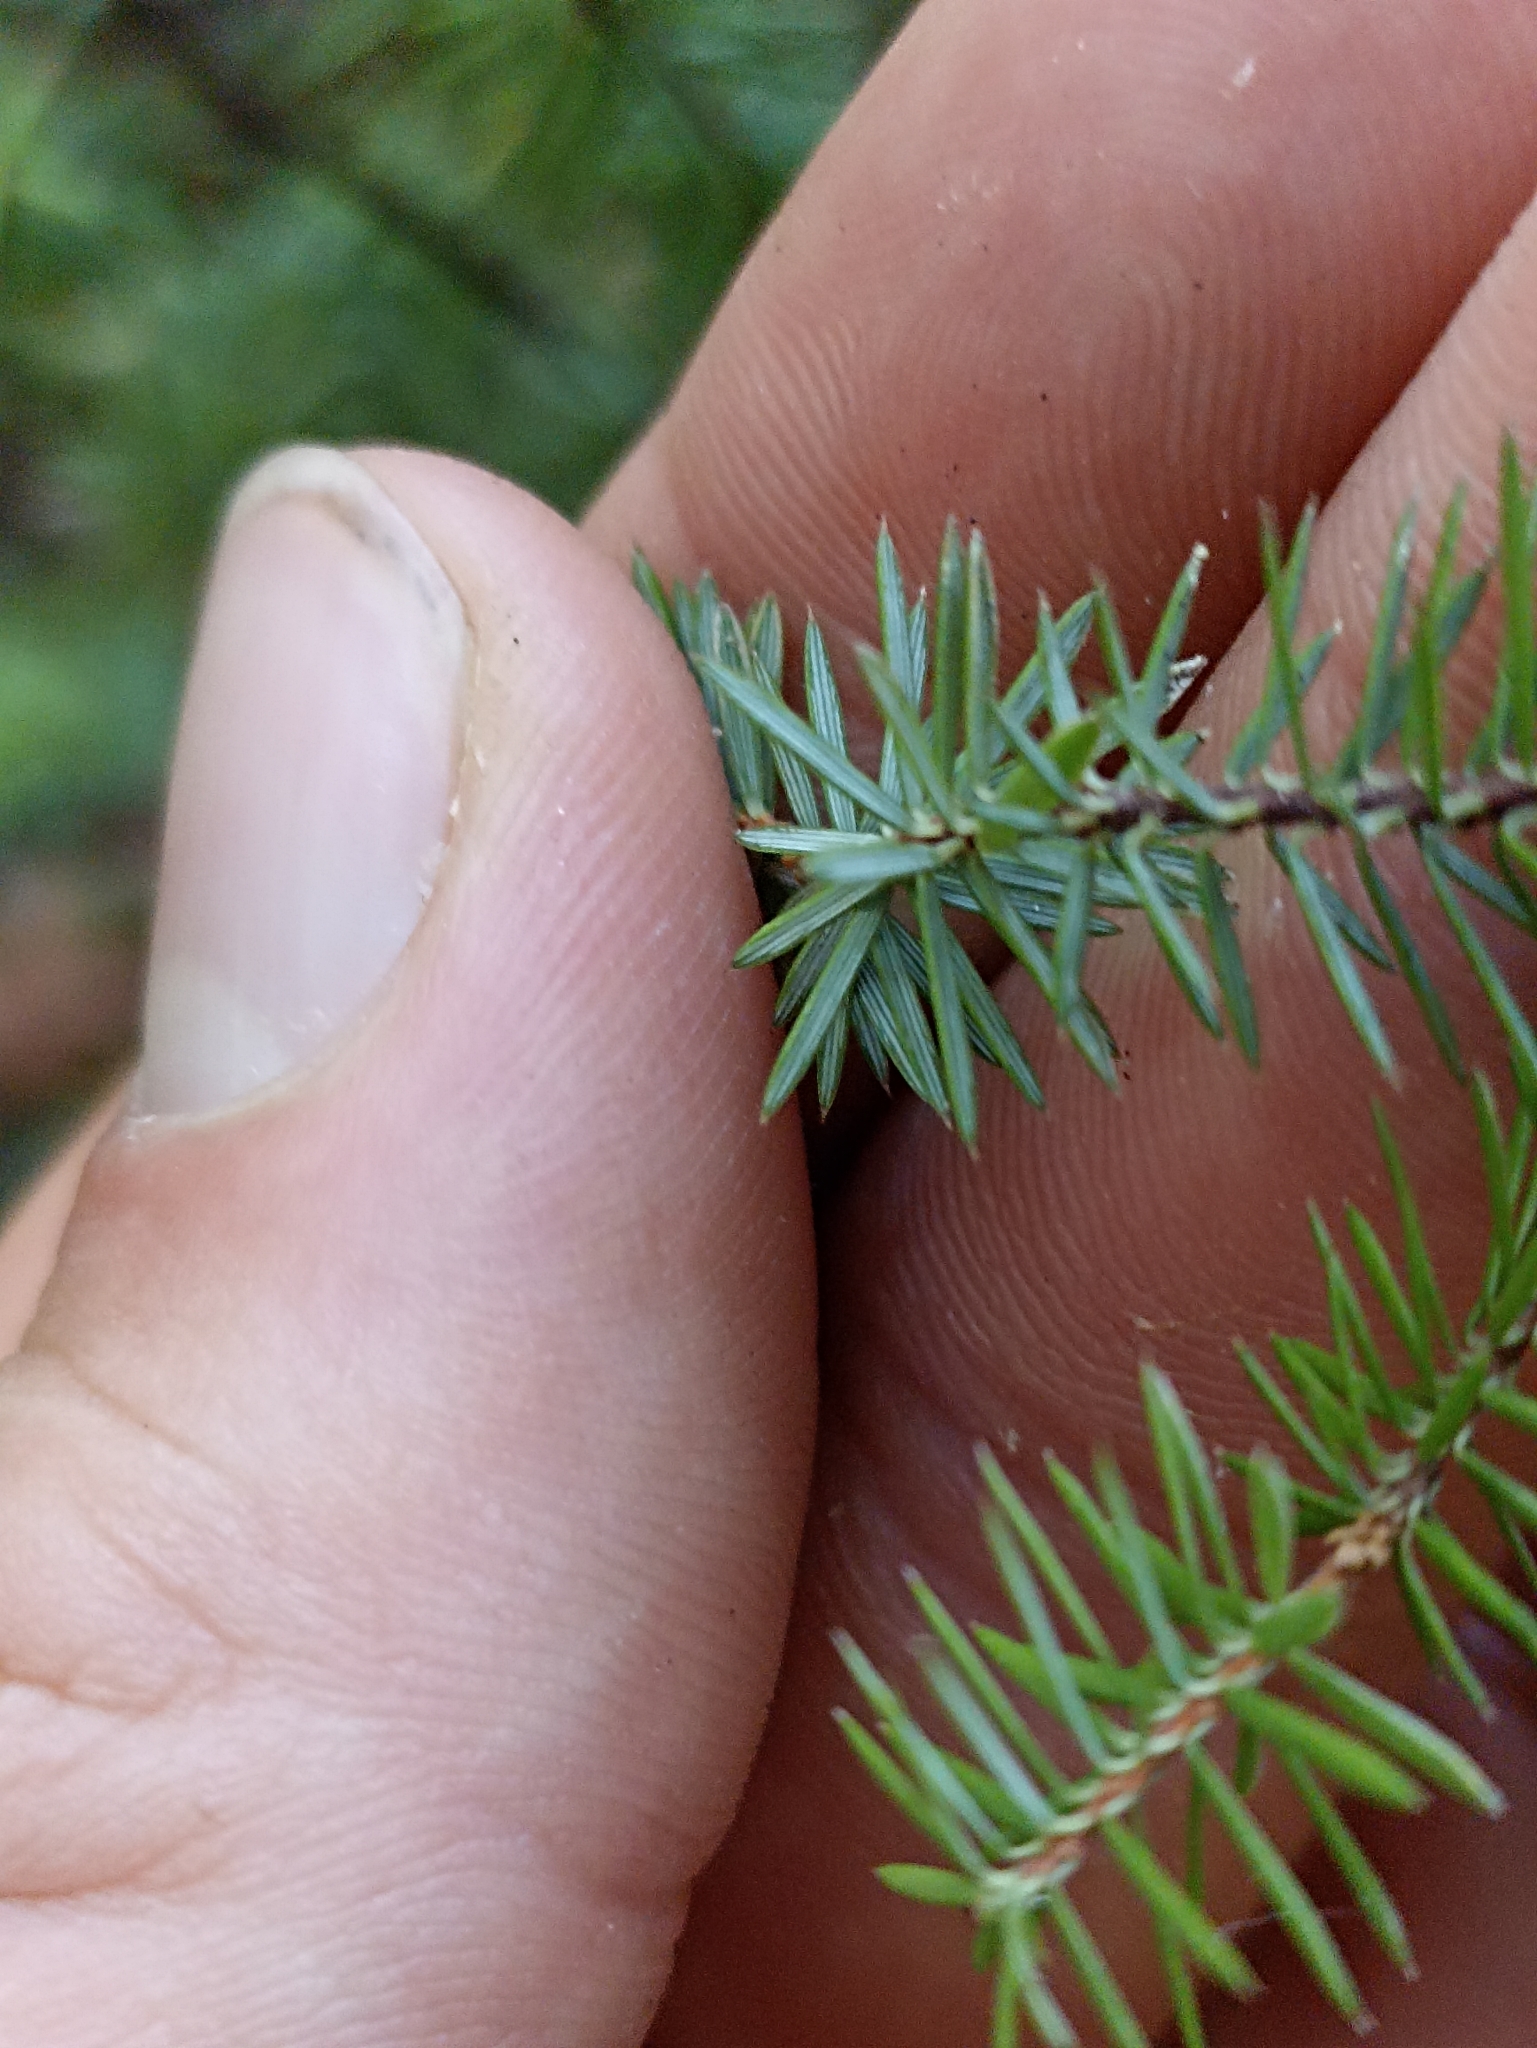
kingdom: Plantae
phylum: Tracheophyta
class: Magnoliopsida
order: Ericales
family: Ericaceae
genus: Leptecophylla
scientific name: Leptecophylla juniperina
